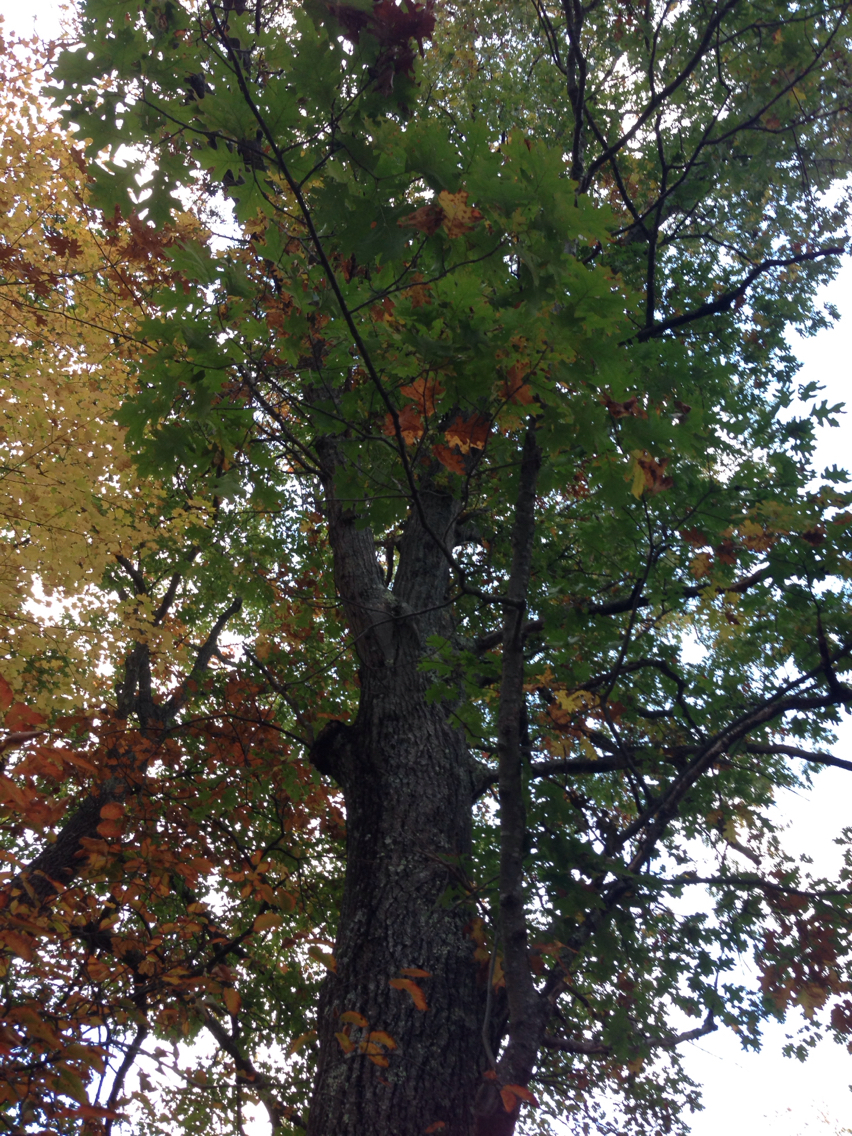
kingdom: Plantae
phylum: Tracheophyta
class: Magnoliopsida
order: Fagales
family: Fagaceae
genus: Quercus
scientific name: Quercus rubra
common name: Red oak
